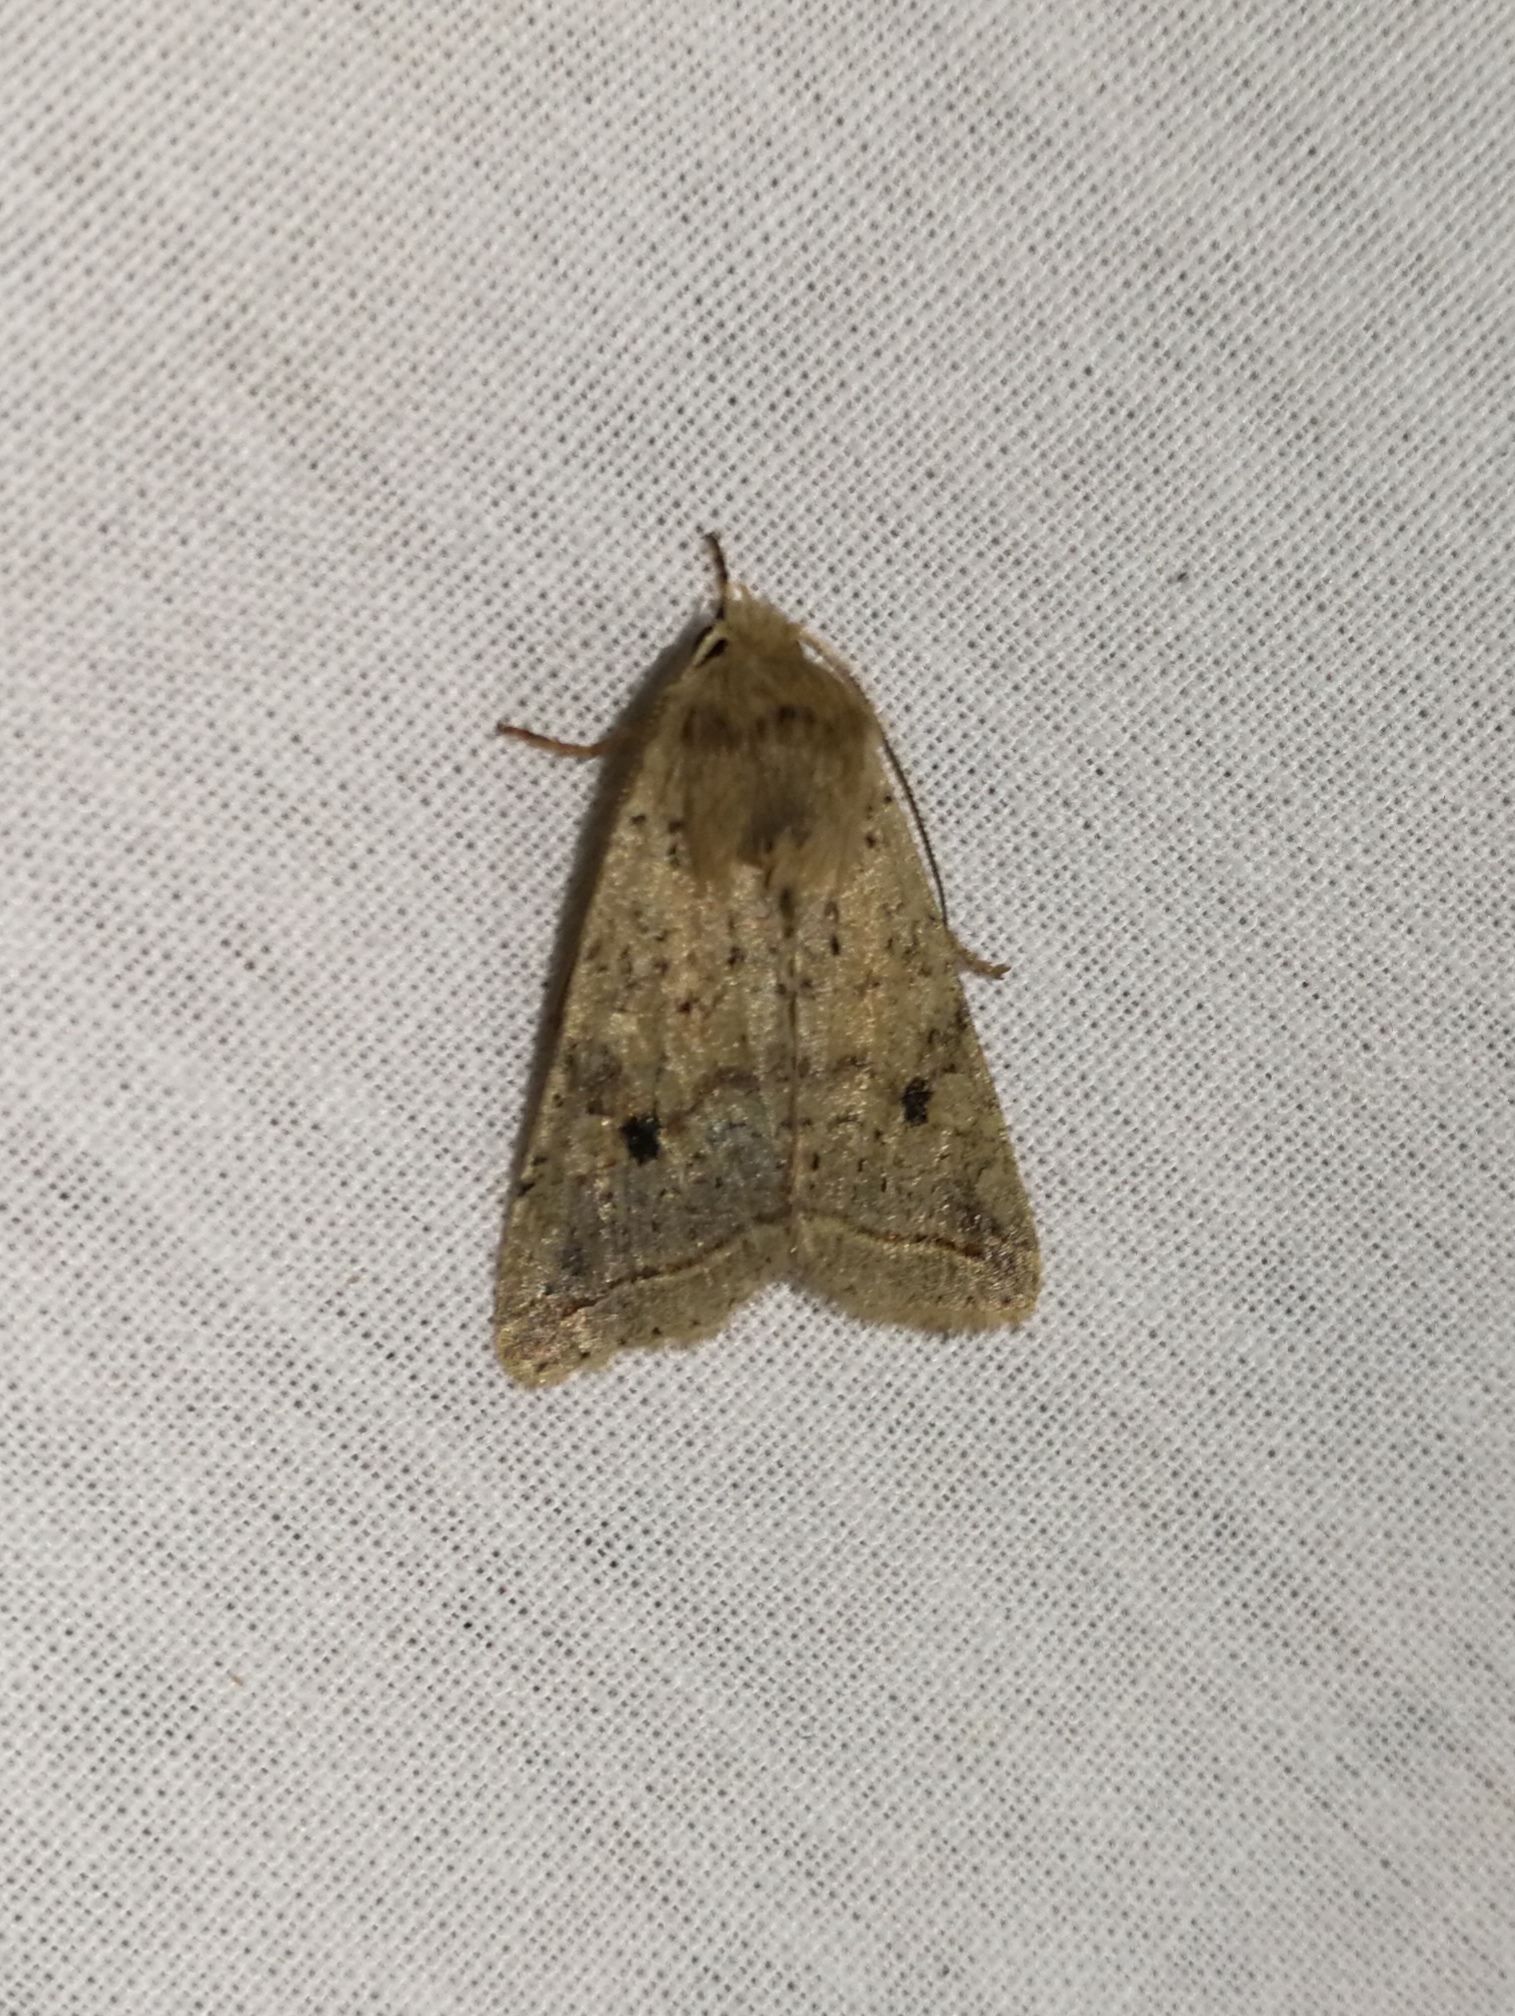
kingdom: Animalia
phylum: Arthropoda
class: Insecta
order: Lepidoptera
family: Noctuidae
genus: Agrochola
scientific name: Agrochola blidaensis
